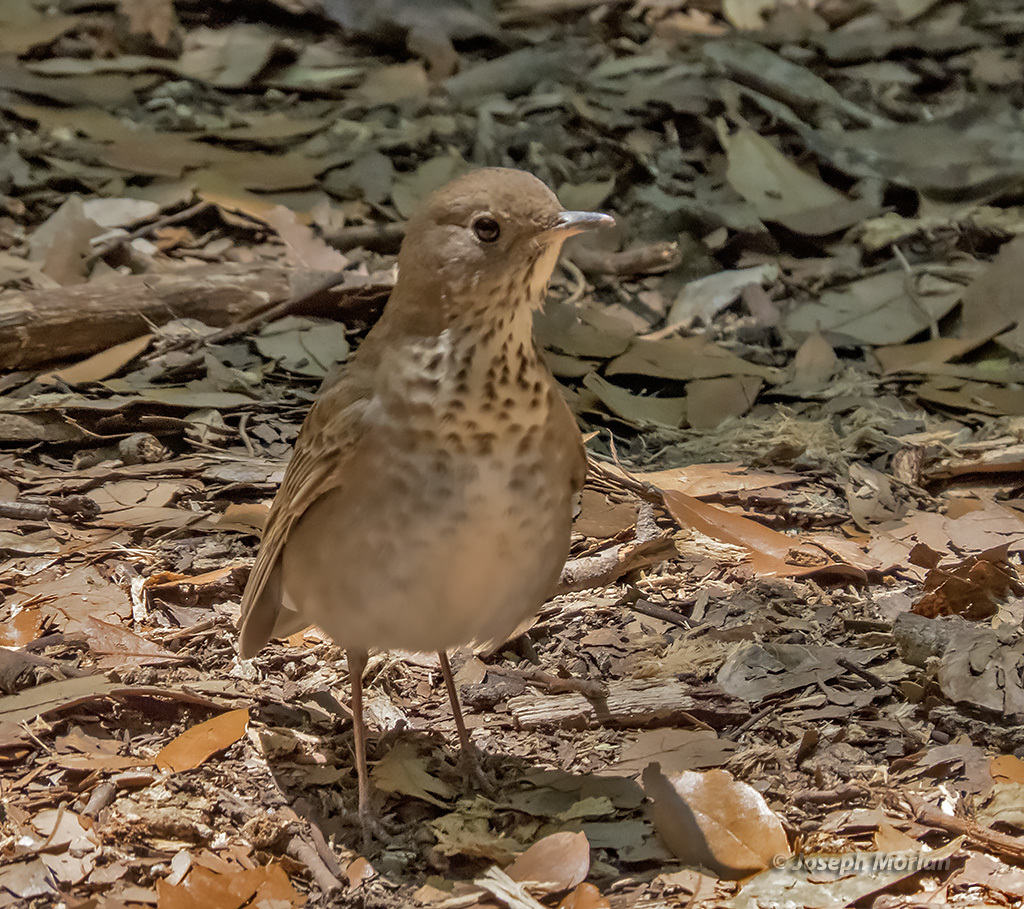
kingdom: Animalia
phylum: Chordata
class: Aves
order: Passeriformes
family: Turdidae
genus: Catharus
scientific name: Catharus minimus
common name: Grey-cheeked thrush
